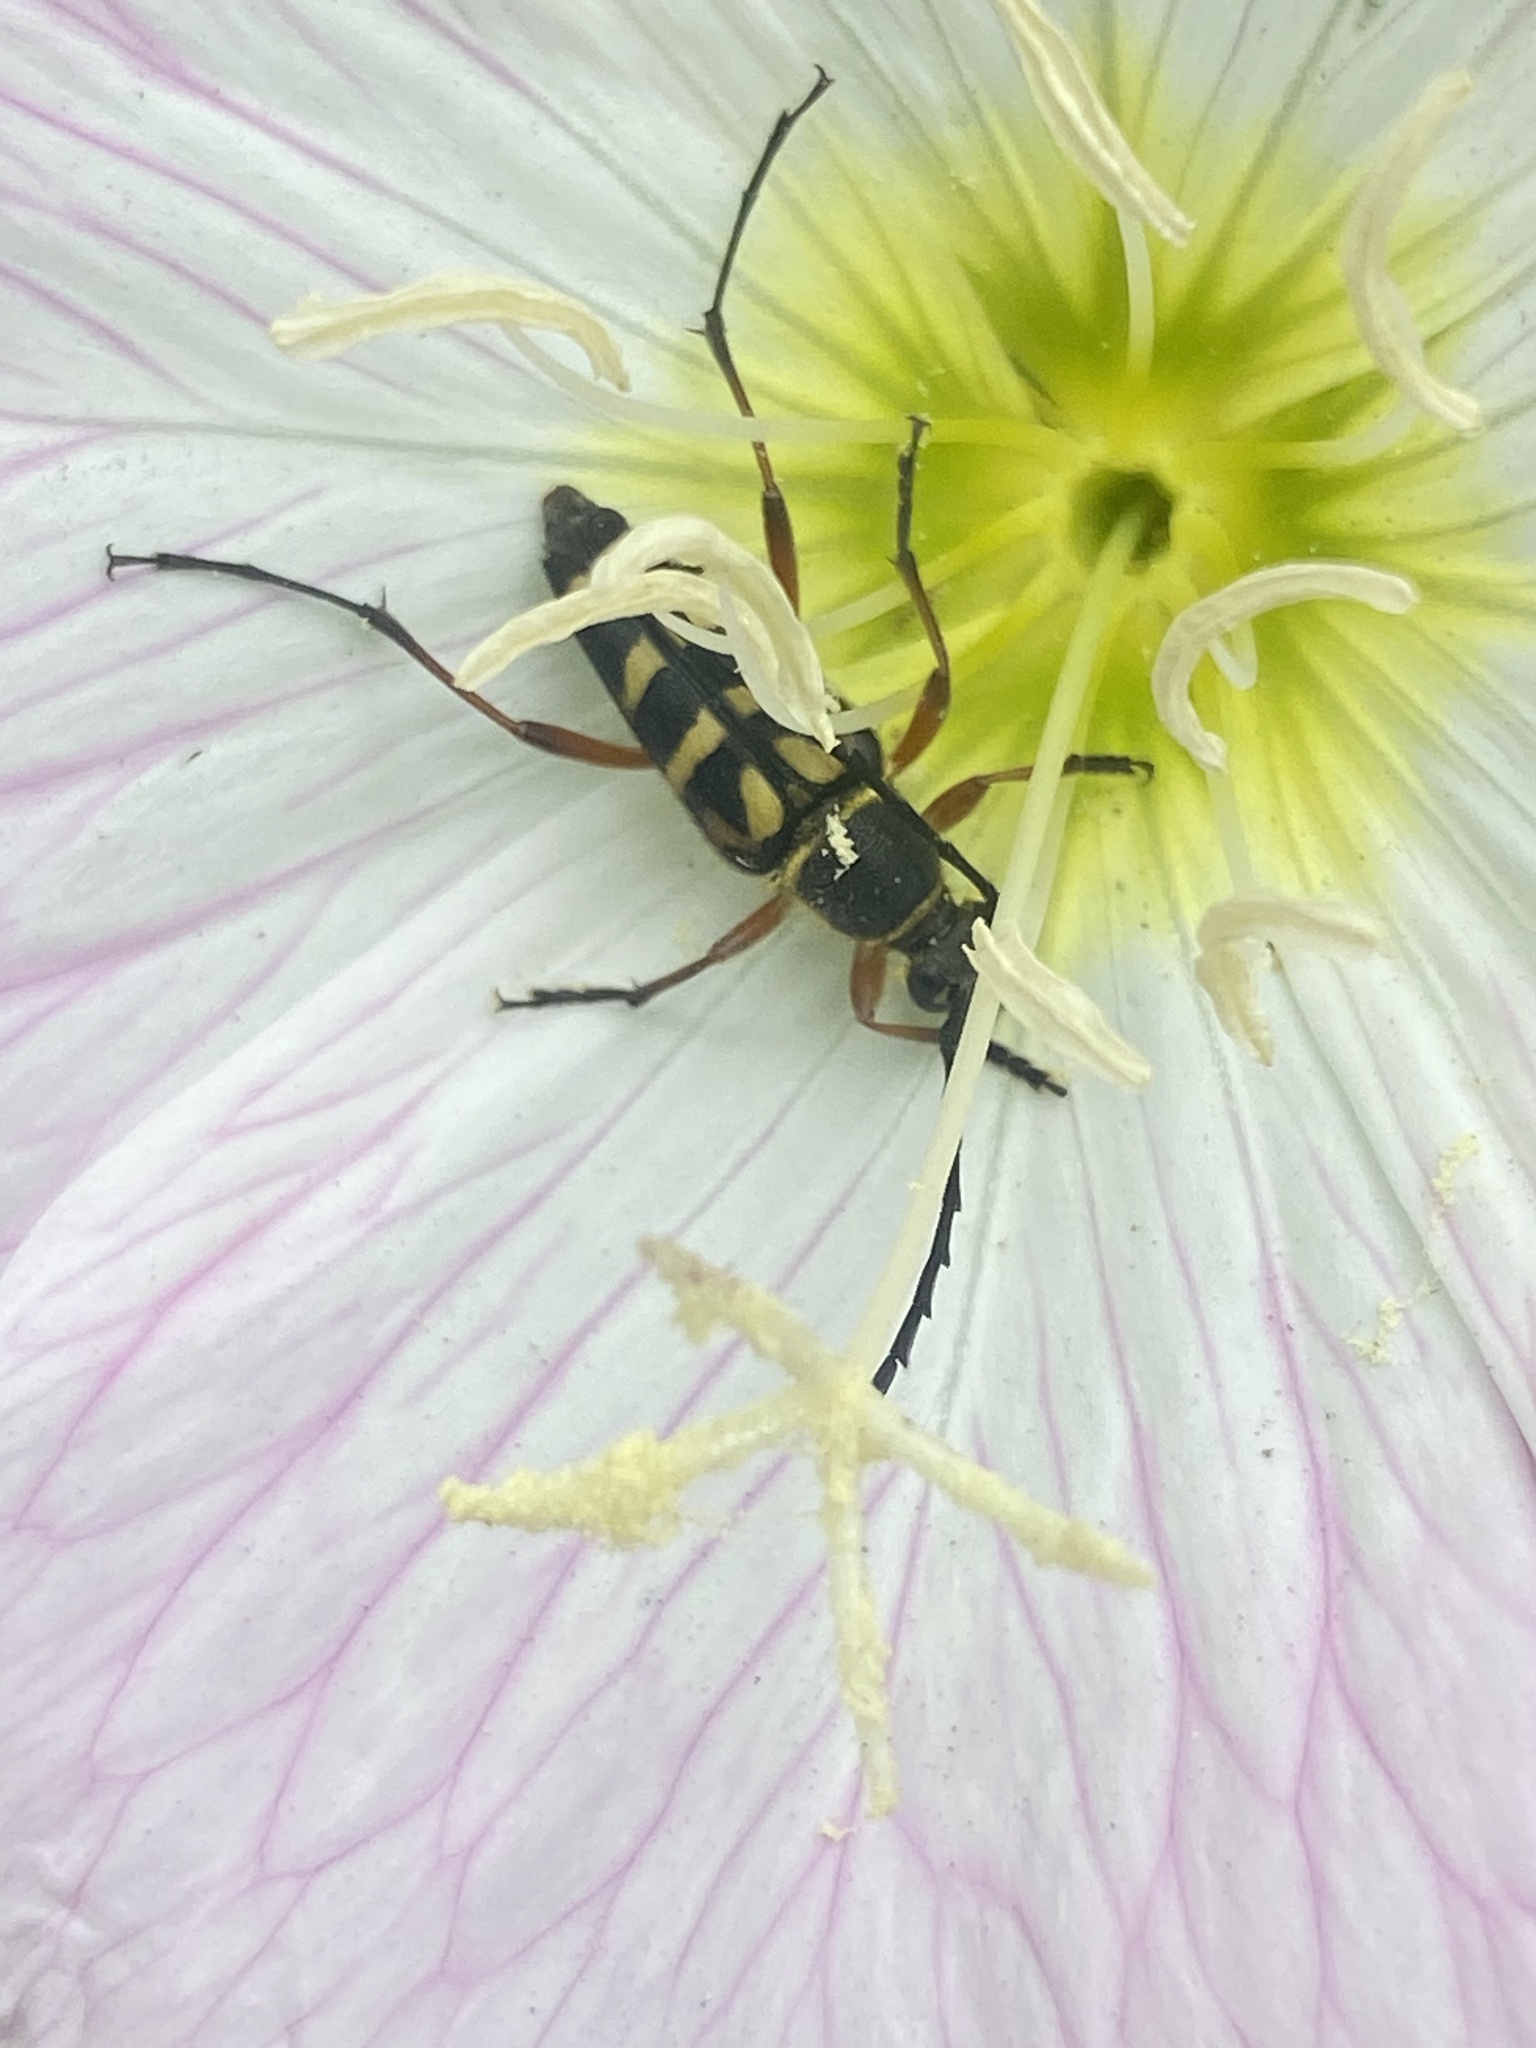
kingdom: Animalia
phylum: Arthropoda
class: Insecta
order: Coleoptera
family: Cerambycidae
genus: Typocerus
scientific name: Typocerus zebra
